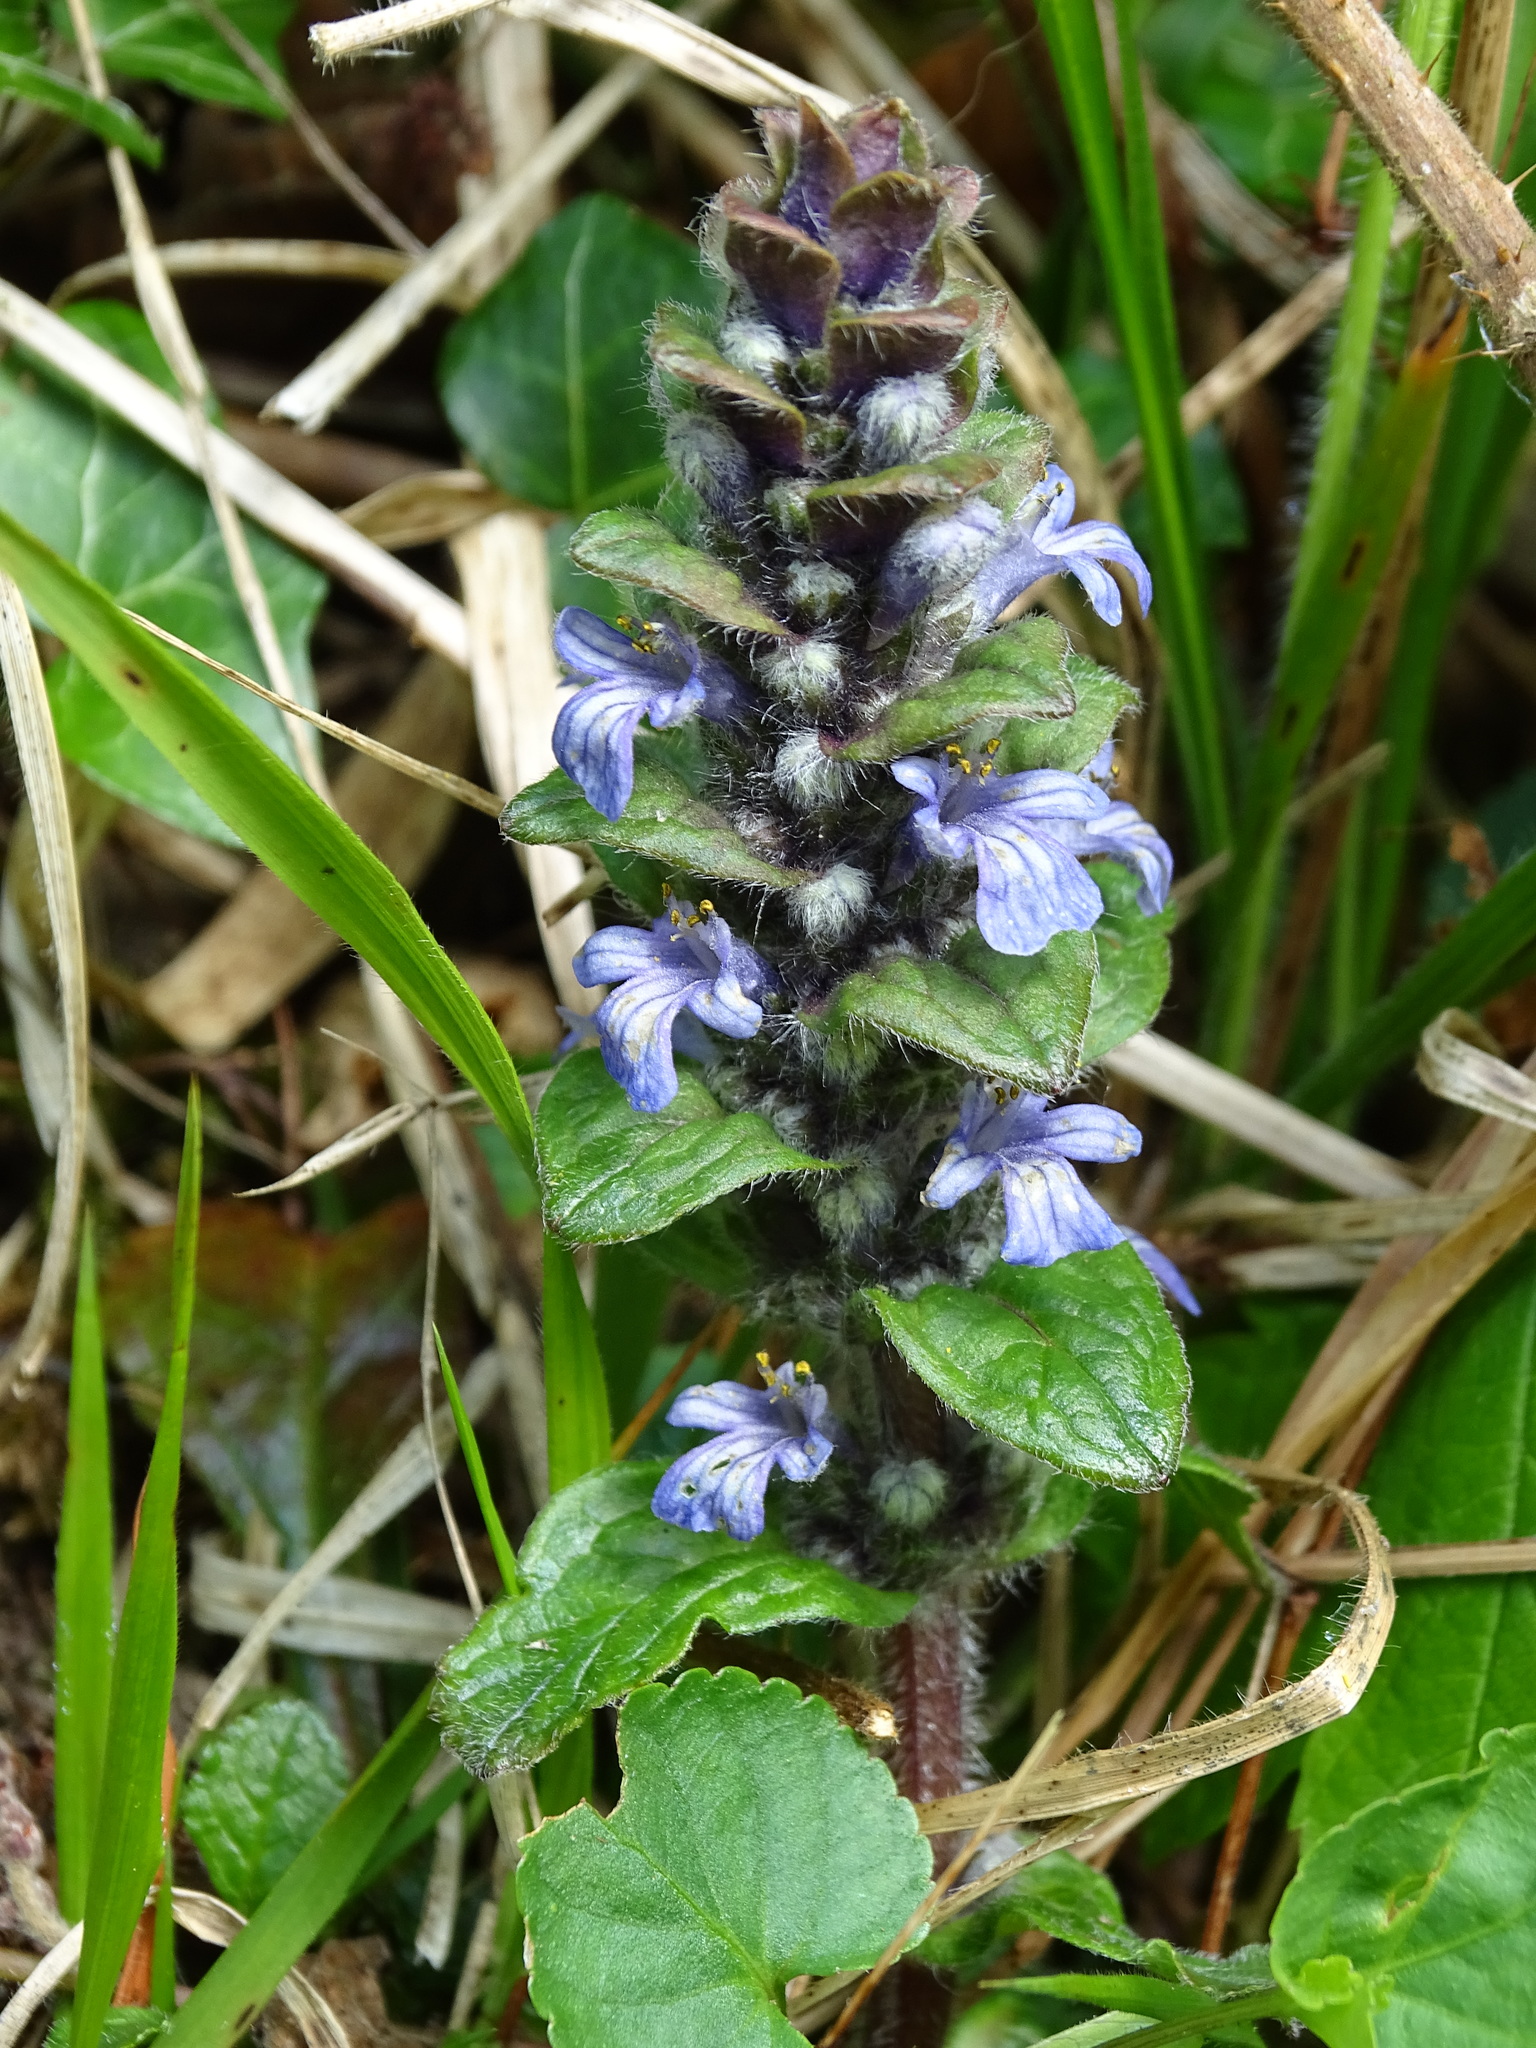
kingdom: Plantae
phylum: Tracheophyta
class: Magnoliopsida
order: Lamiales
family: Lamiaceae
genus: Ajuga
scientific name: Ajuga reptans
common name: Bugle
